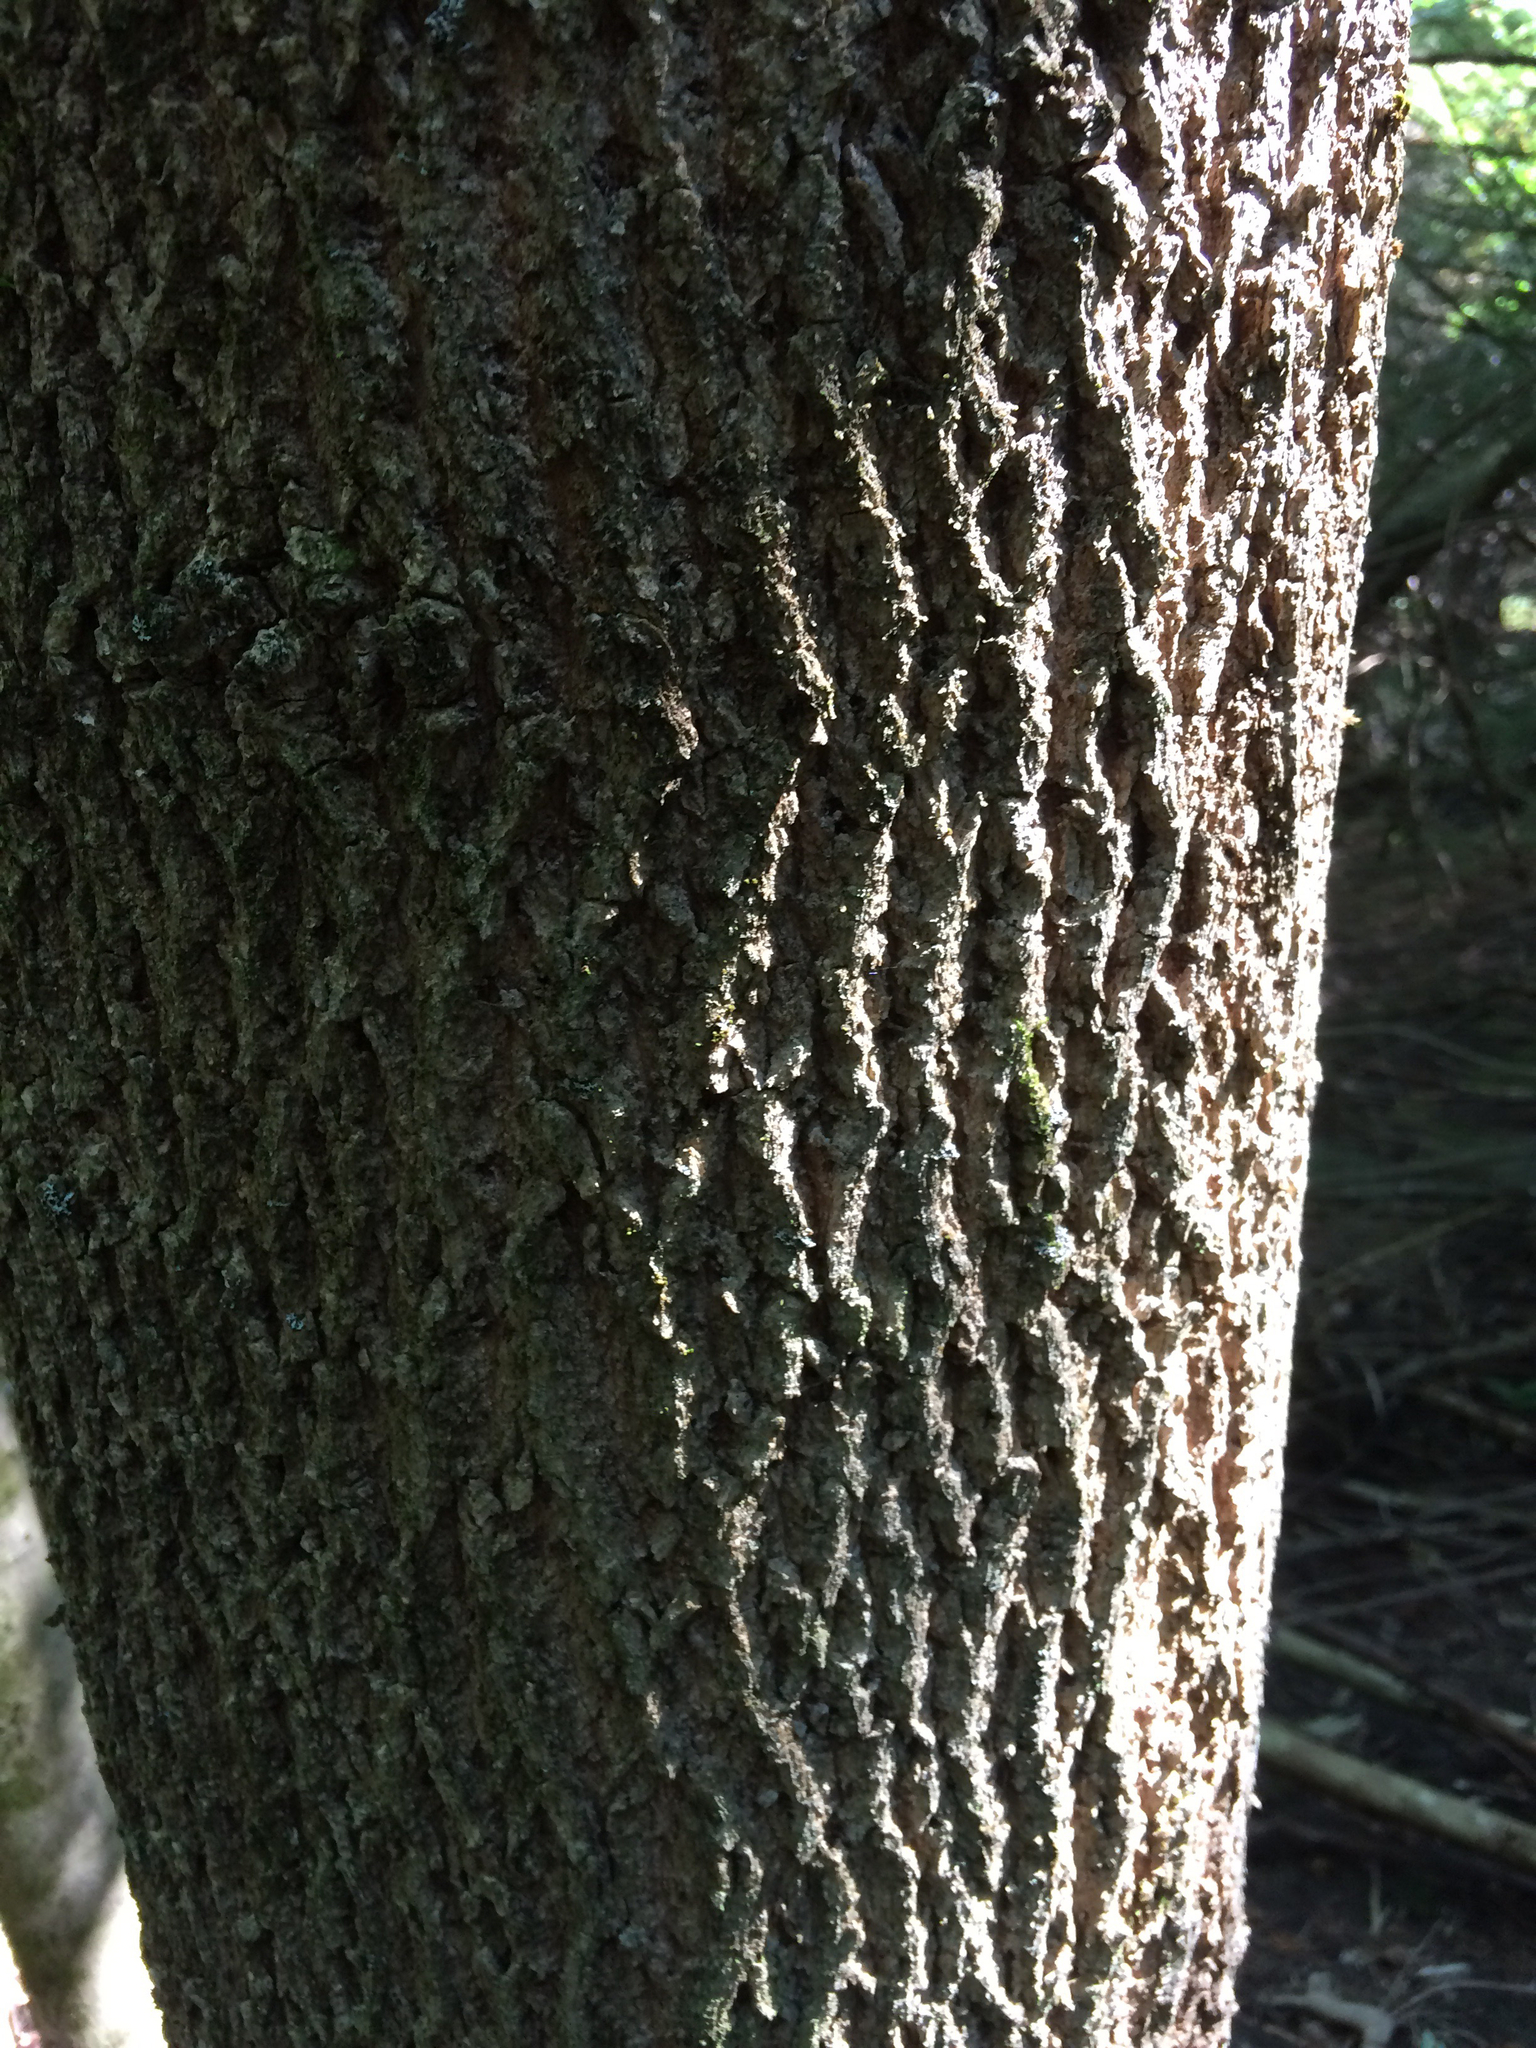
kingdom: Plantae
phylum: Tracheophyta
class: Magnoliopsida
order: Lamiales
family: Oleaceae
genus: Fraxinus
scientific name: Fraxinus americana
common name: White ash
